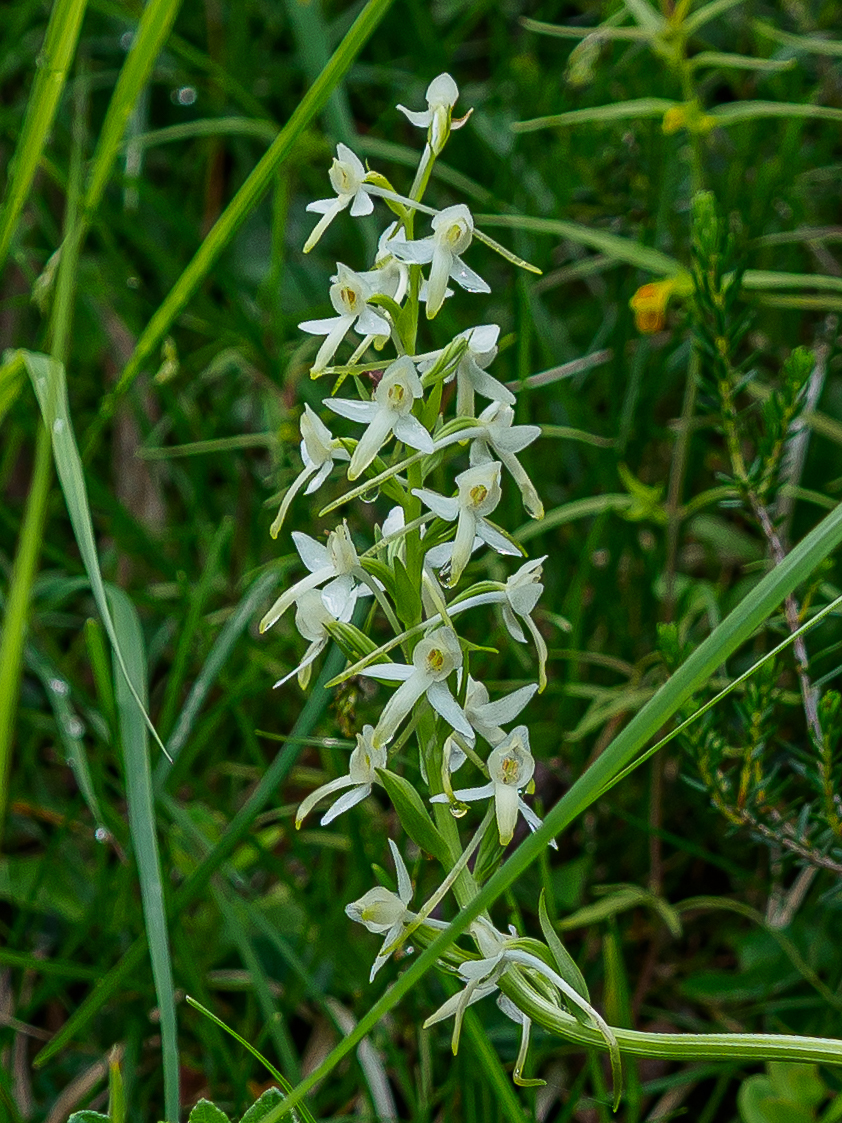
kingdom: Plantae
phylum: Tracheophyta
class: Liliopsida
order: Asparagales
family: Orchidaceae
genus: Platanthera
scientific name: Platanthera bifolia
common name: Lesser butterfly-orchid
